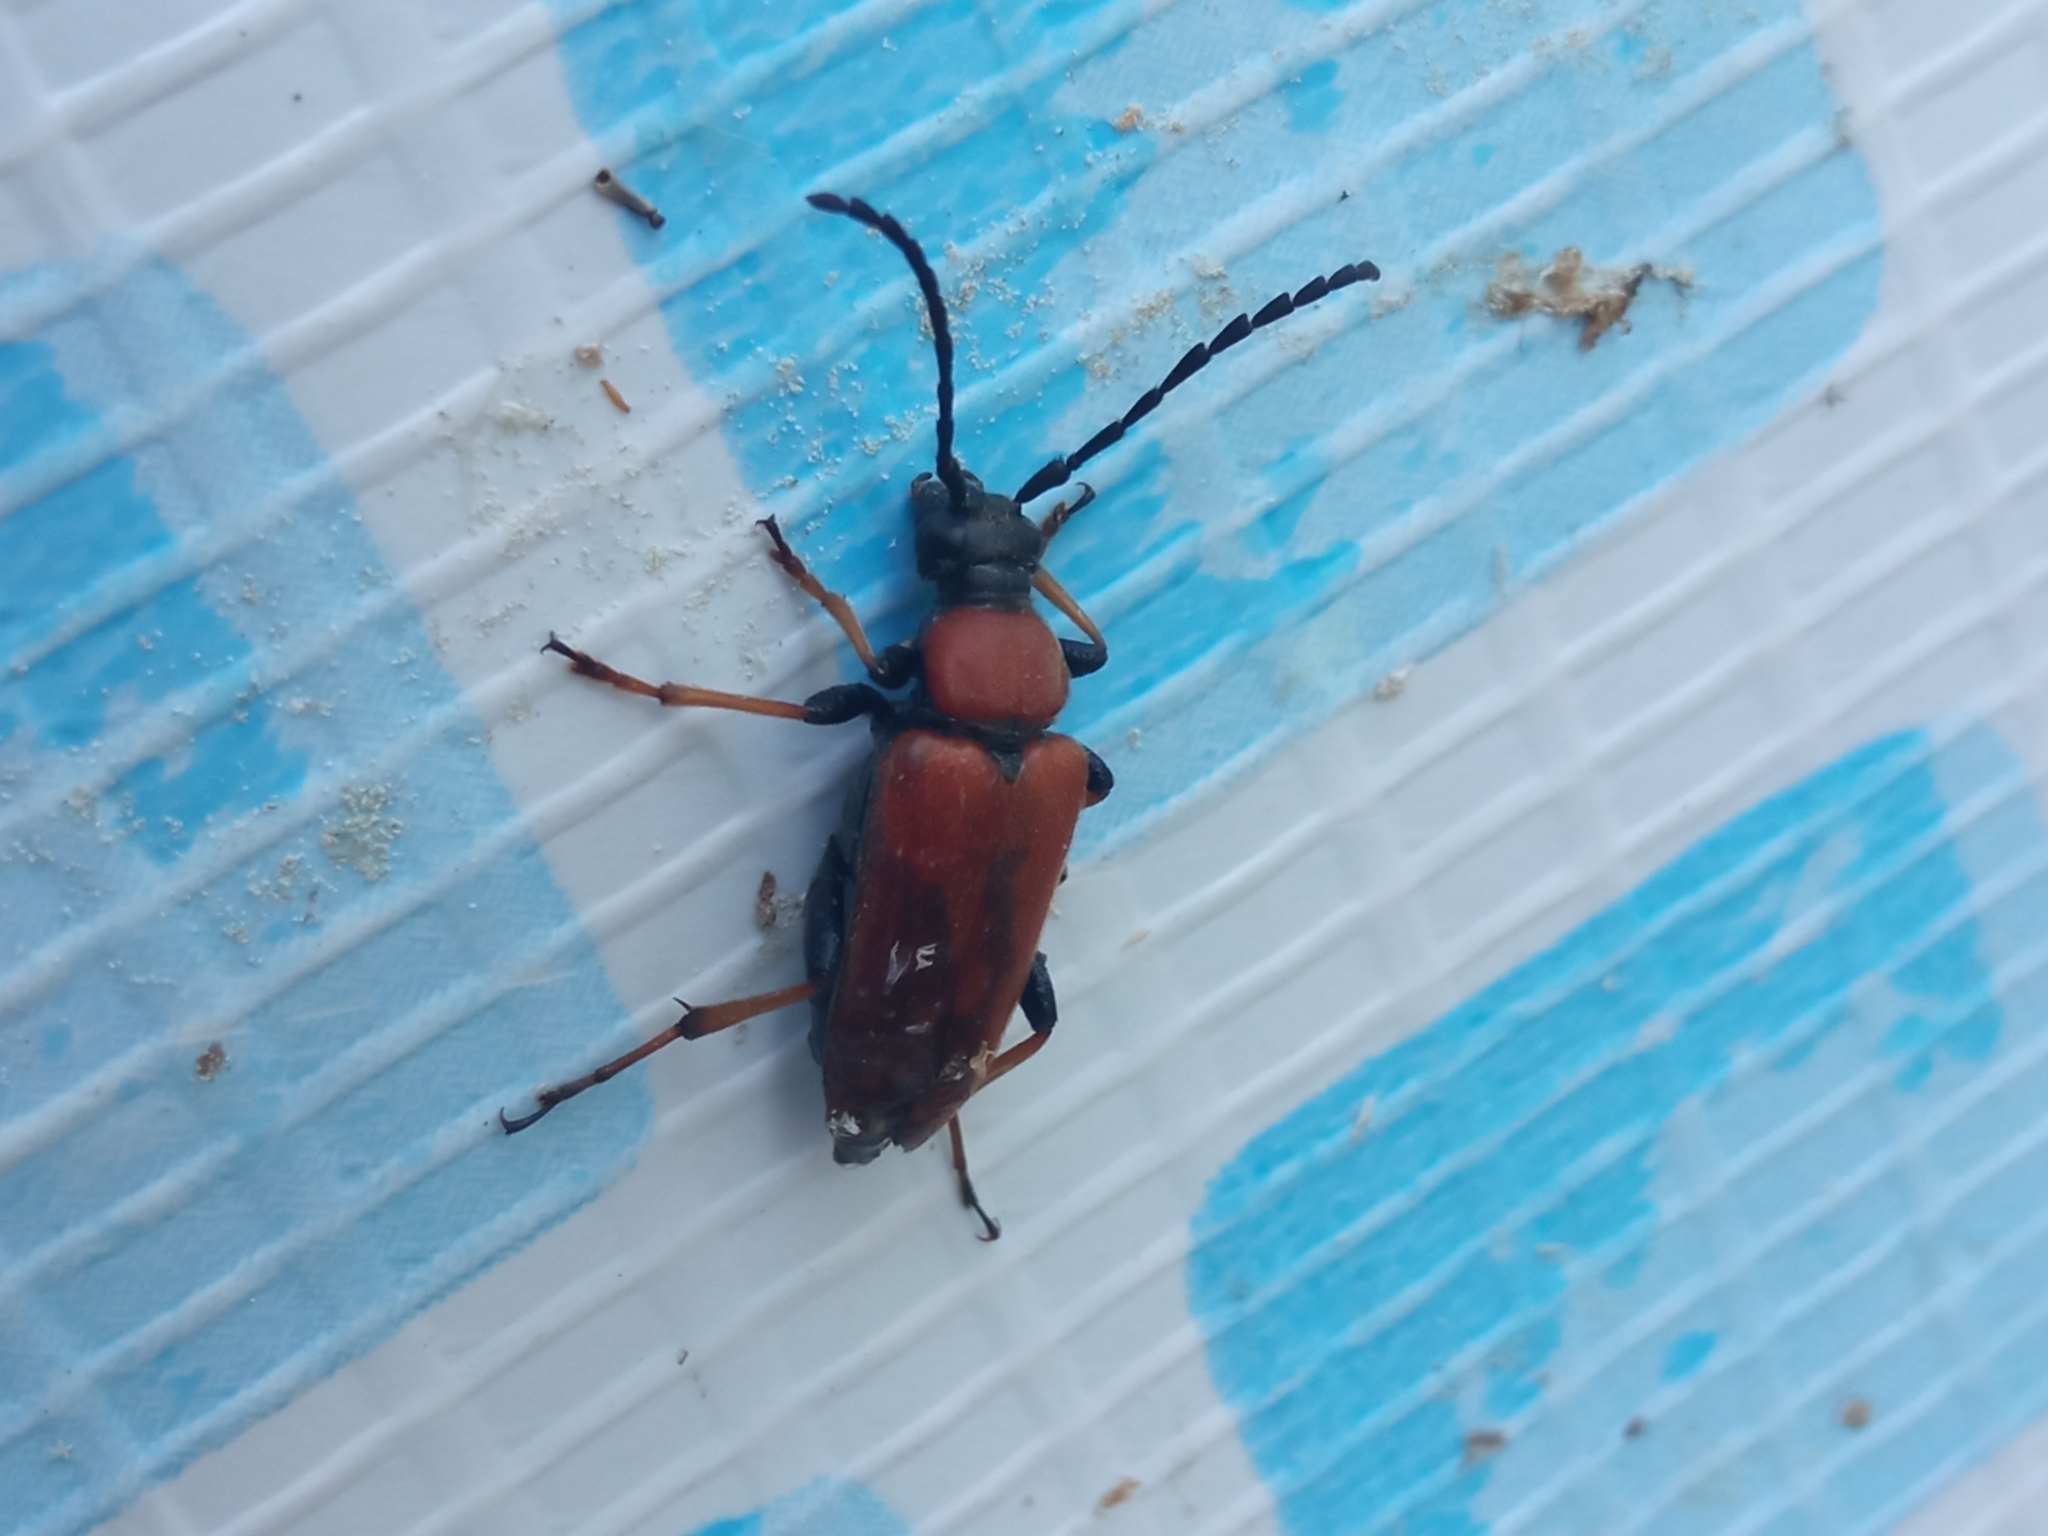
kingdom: Animalia
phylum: Arthropoda
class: Insecta
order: Coleoptera
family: Cerambycidae
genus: Stictoleptura
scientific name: Stictoleptura rubra
